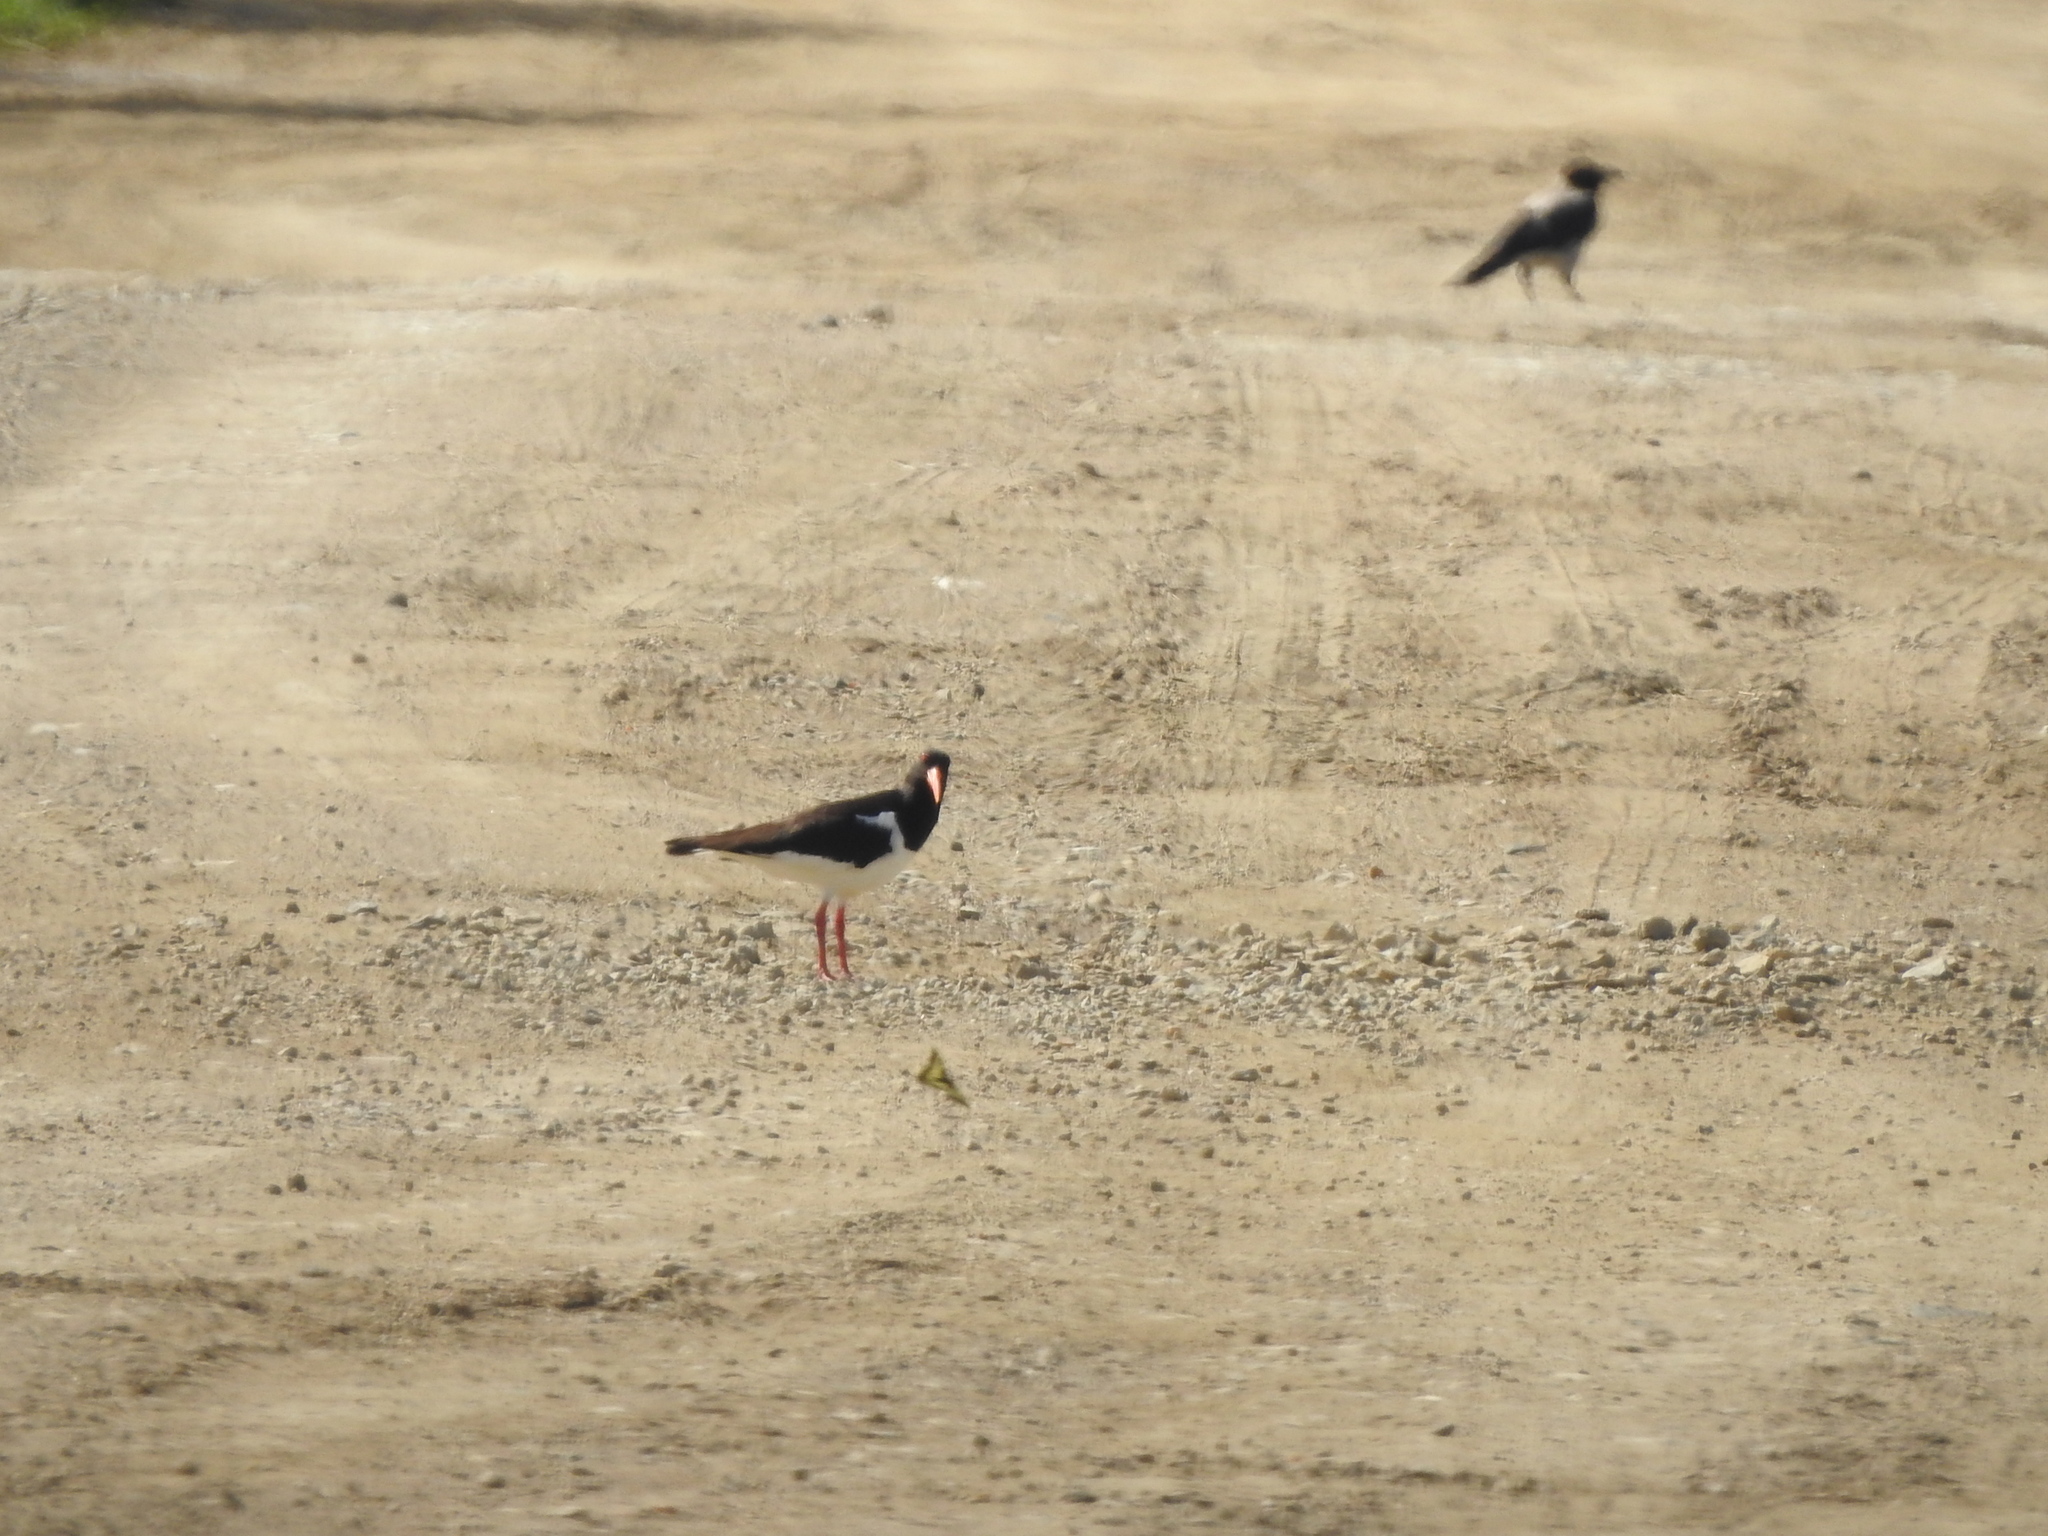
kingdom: Animalia
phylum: Chordata
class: Aves
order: Charadriiformes
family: Haematopodidae
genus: Haematopus
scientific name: Haematopus ostralegus
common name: Eurasian oystercatcher
